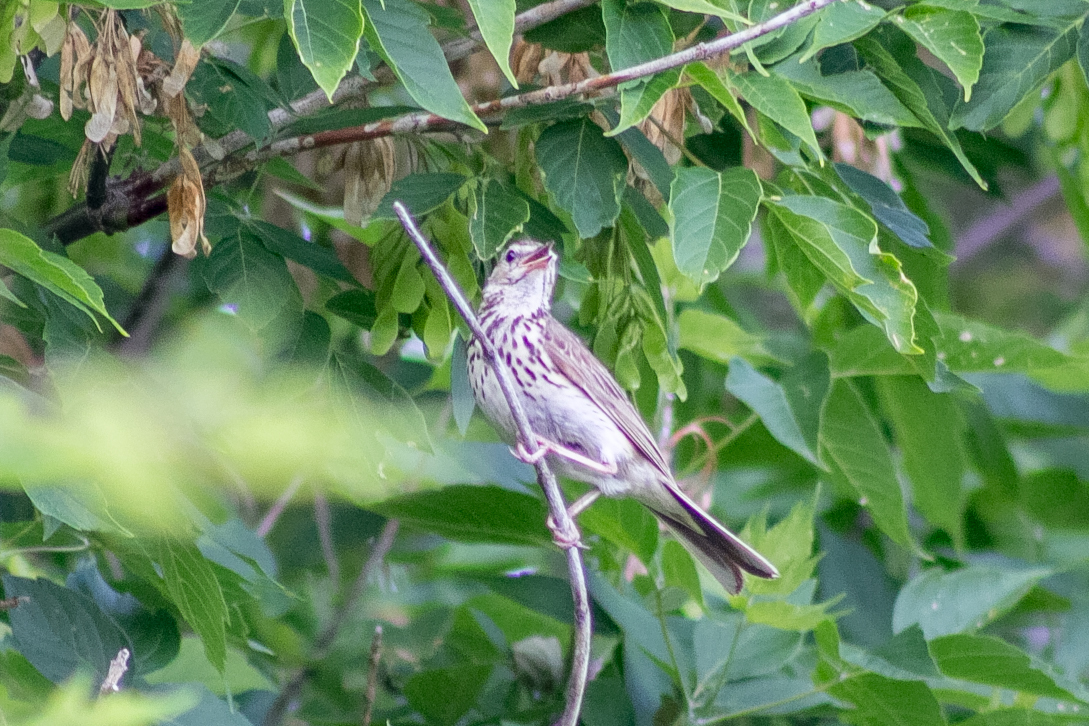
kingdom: Animalia
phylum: Chordata
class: Aves
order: Passeriformes
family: Motacillidae
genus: Anthus
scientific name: Anthus trivialis
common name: Tree pipit
